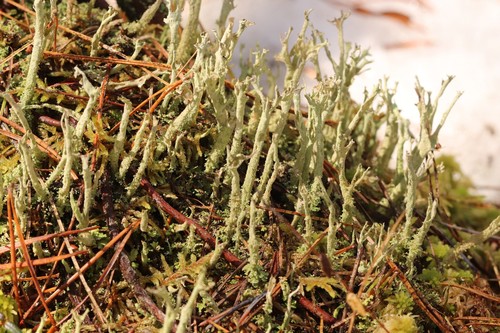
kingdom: Fungi
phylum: Ascomycota
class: Lecanoromycetes
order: Lecanorales
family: Cladoniaceae
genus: Cladonia
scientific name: Cladonia cenotea
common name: Powdered funnel lichen
